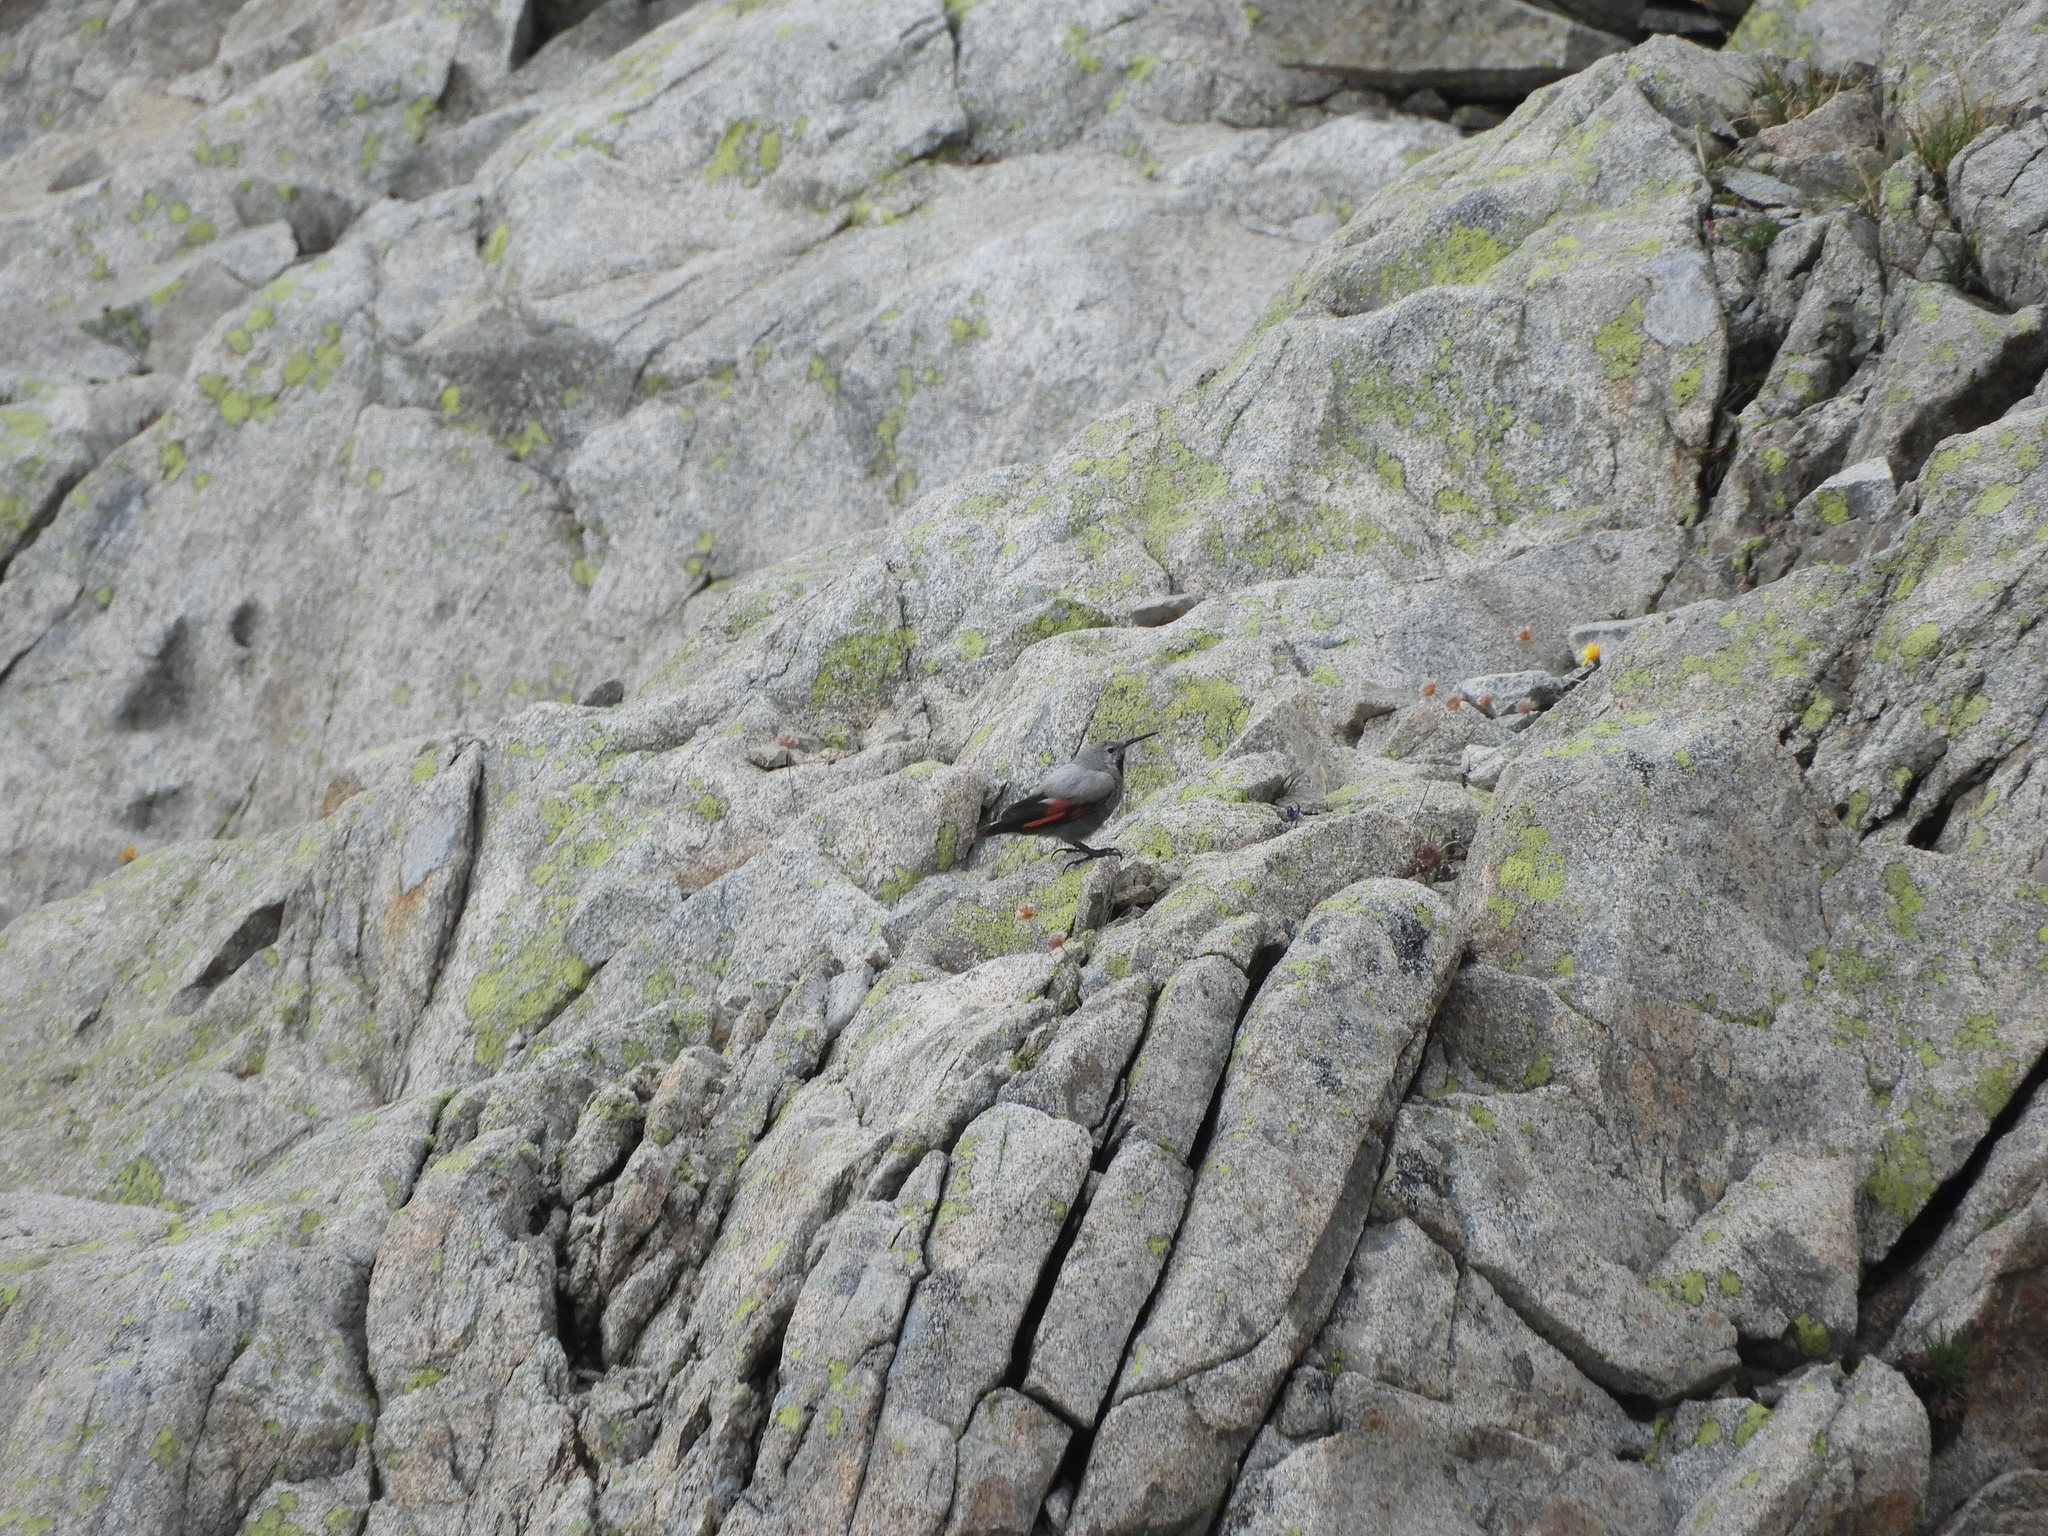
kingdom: Animalia
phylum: Chordata
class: Aves
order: Passeriformes
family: Tichodromidae
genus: Tichodroma
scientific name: Tichodroma muraria
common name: Wallcreeper
